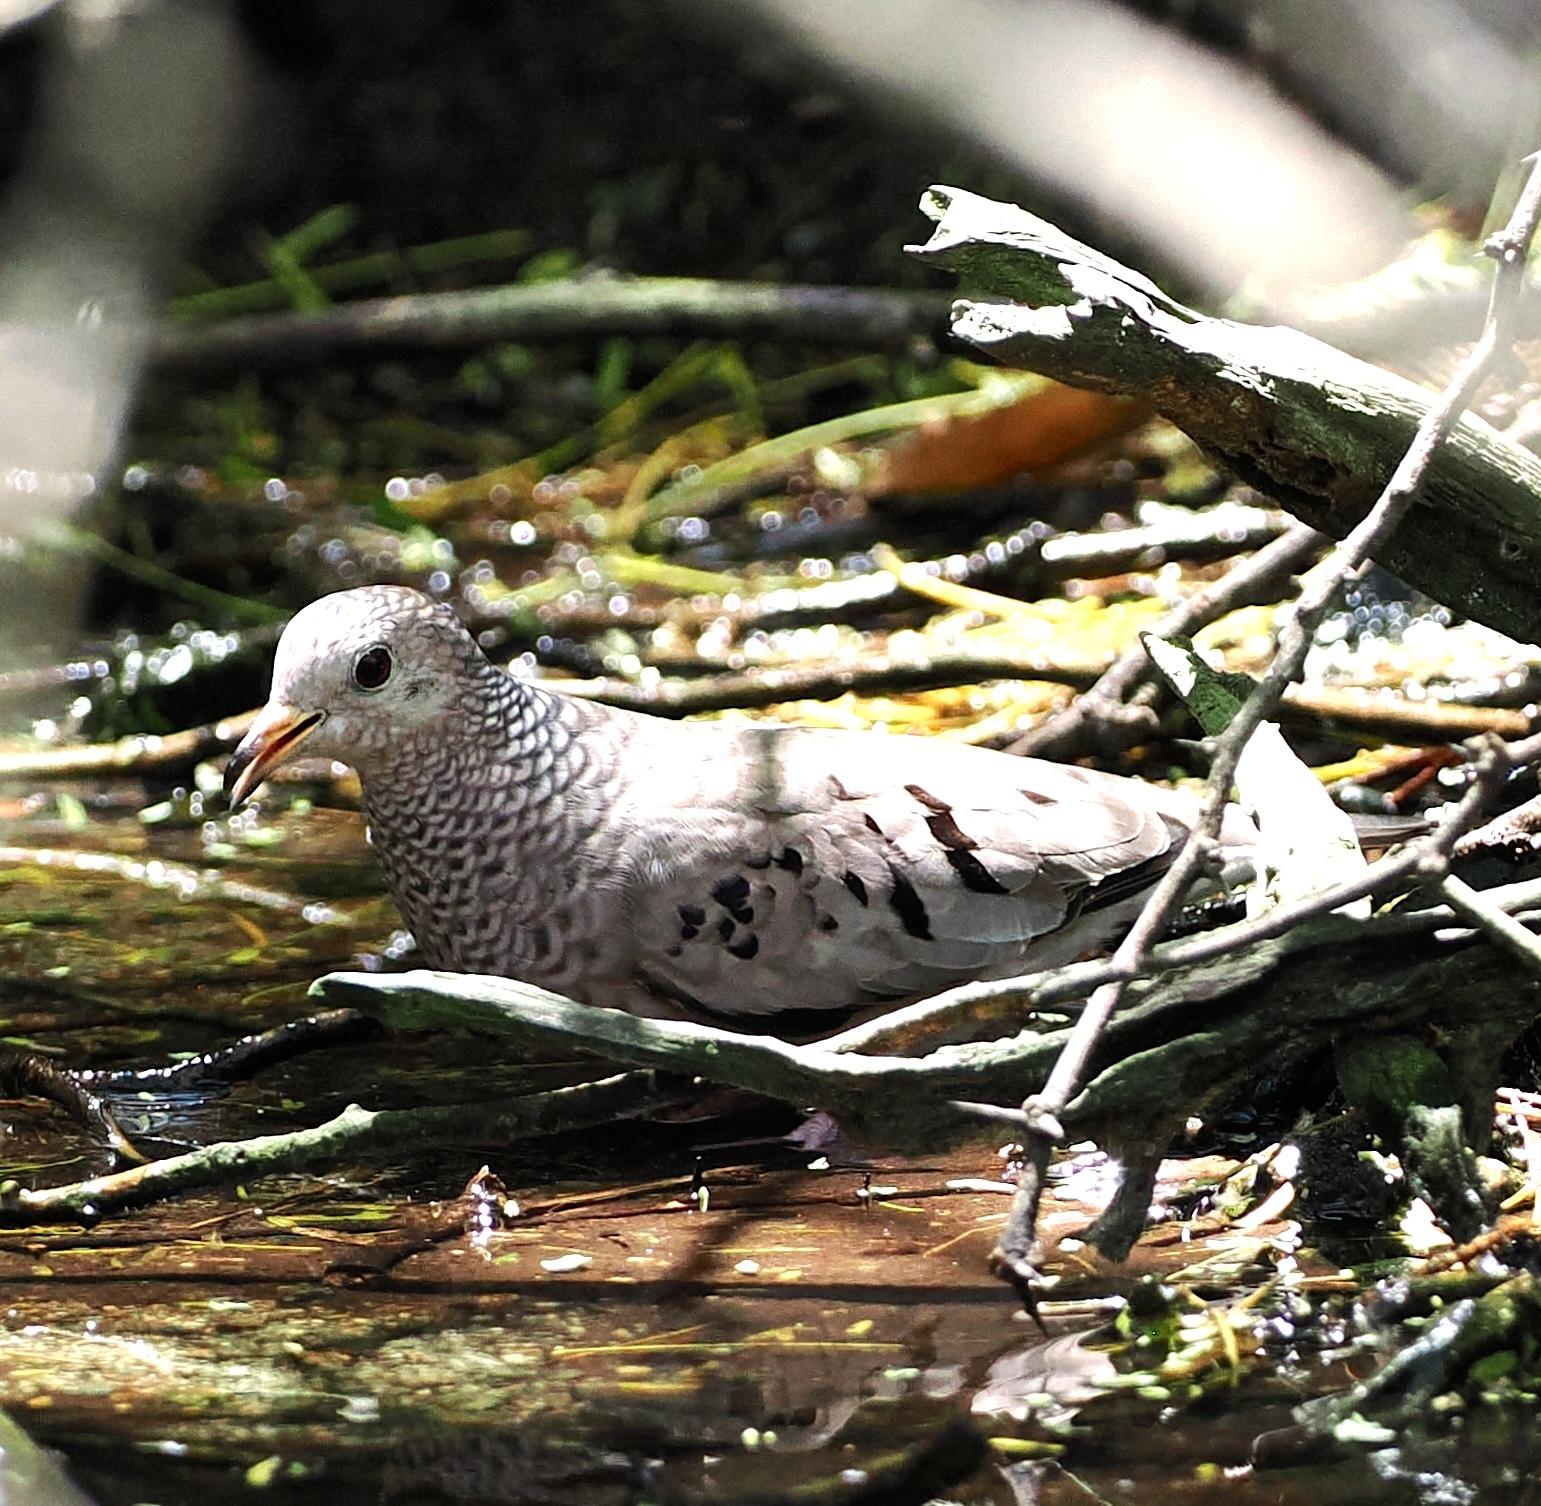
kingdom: Animalia
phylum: Chordata
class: Aves
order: Columbiformes
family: Columbidae
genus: Columbina
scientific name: Columbina passerina
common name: Common ground-dove
